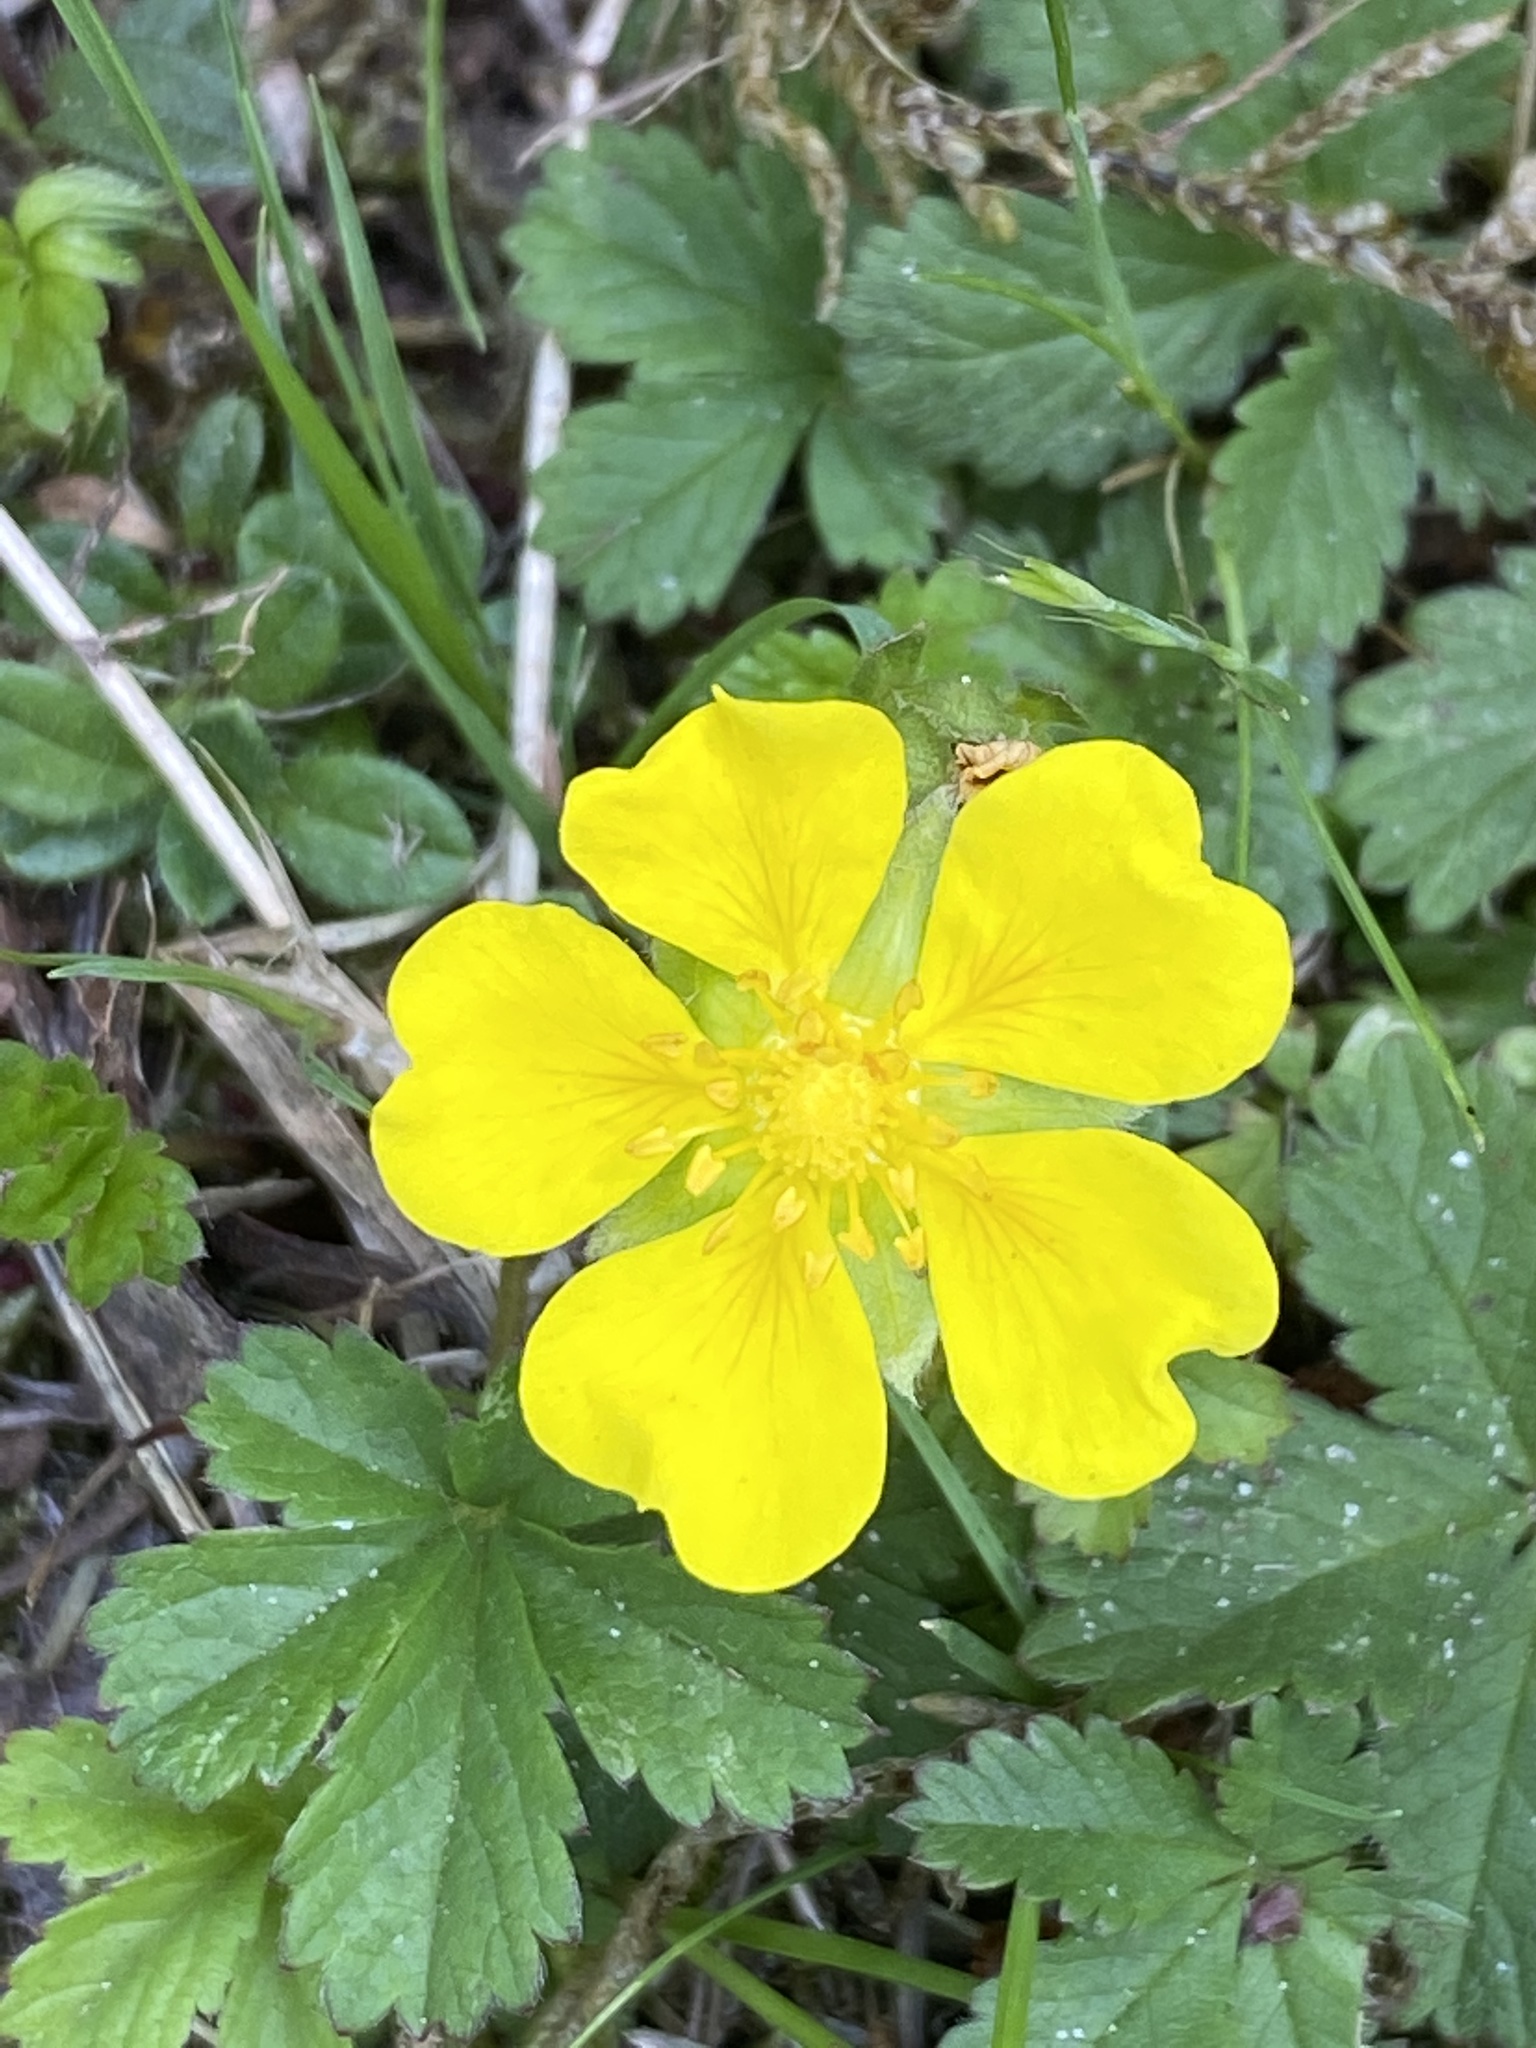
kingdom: Plantae
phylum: Tracheophyta
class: Magnoliopsida
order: Rosales
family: Rosaceae
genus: Potentilla
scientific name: Potentilla reptans
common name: Creeping cinquefoil
